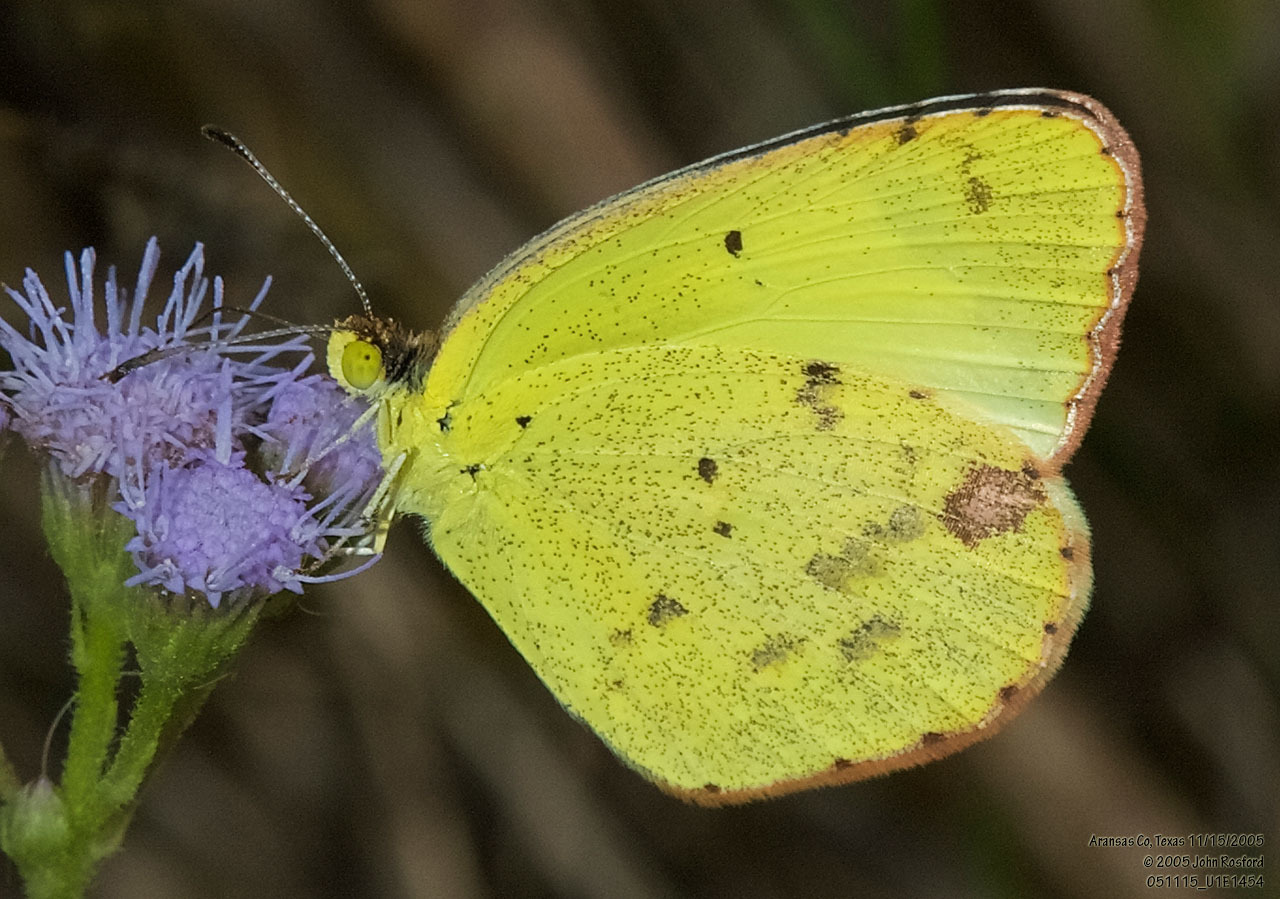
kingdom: Animalia
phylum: Arthropoda
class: Insecta
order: Lepidoptera
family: Pieridae
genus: Pyrisitia
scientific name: Pyrisitia lisa
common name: Little yellow
